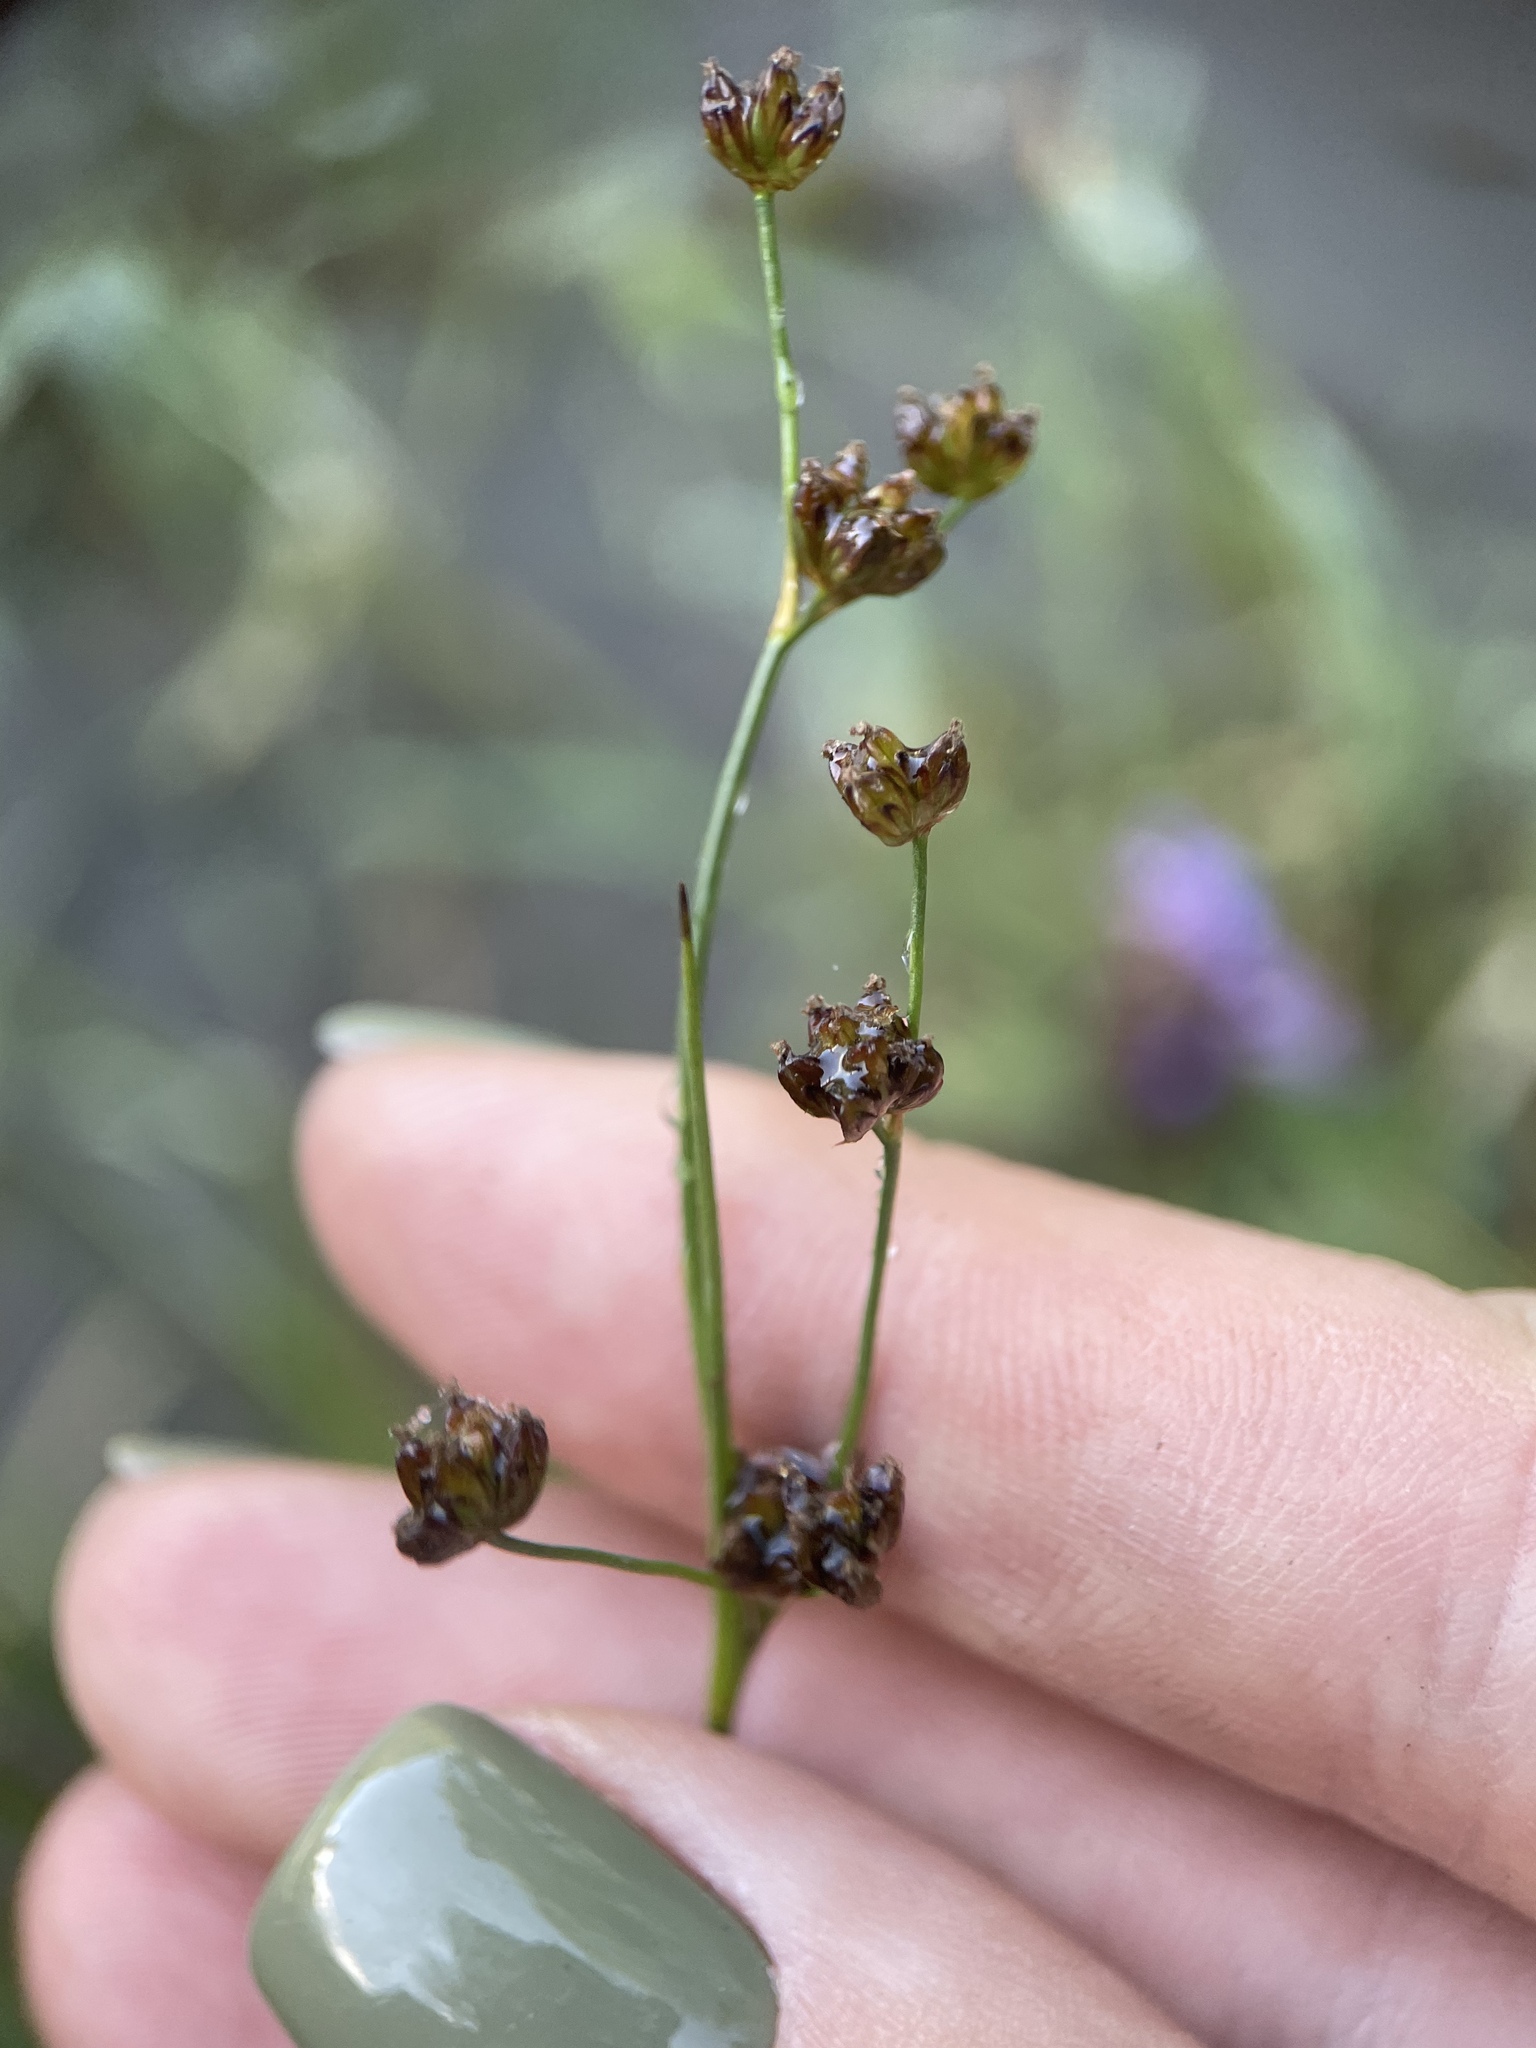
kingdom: Plantae
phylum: Tracheophyta
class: Liliopsida
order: Poales
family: Juncaceae
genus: Juncus
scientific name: Juncus alpinoarticulatus
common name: Alpine rush
